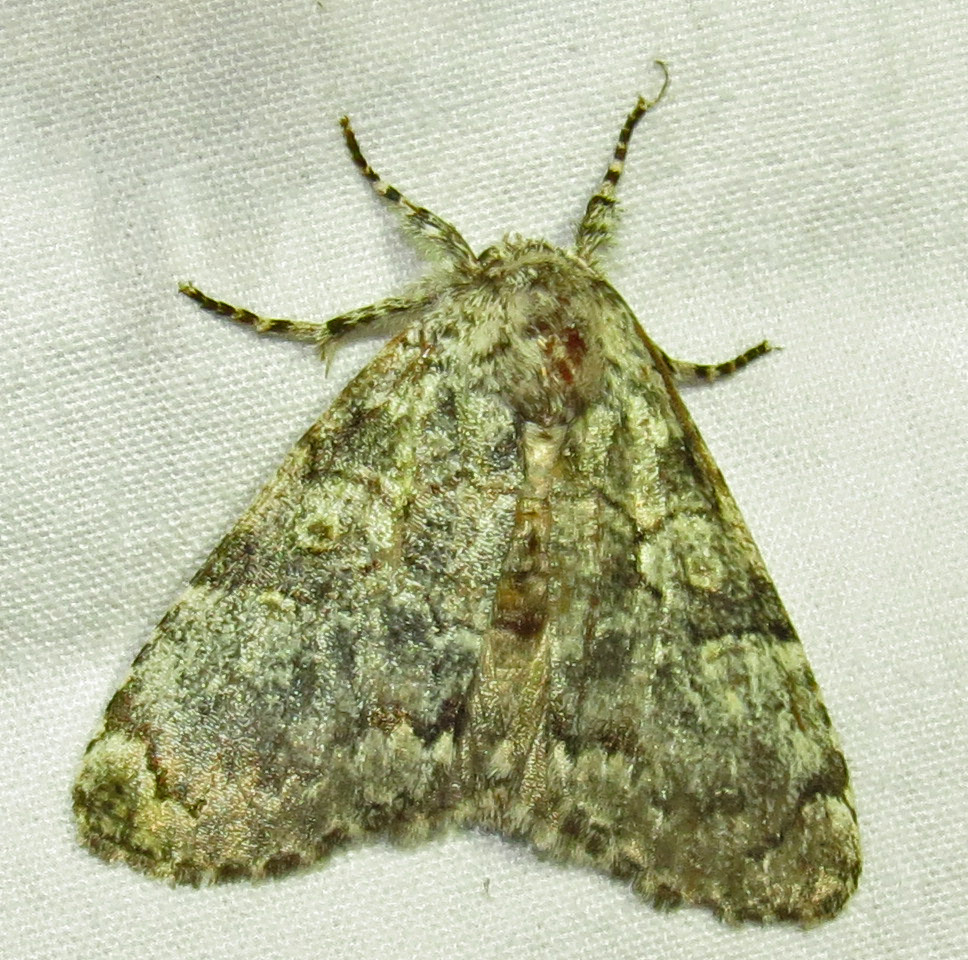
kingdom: Animalia
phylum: Arthropoda
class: Insecta
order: Lepidoptera
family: Noctuidae
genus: Charadra
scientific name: Charadra deridens
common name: Marbled tuffet
